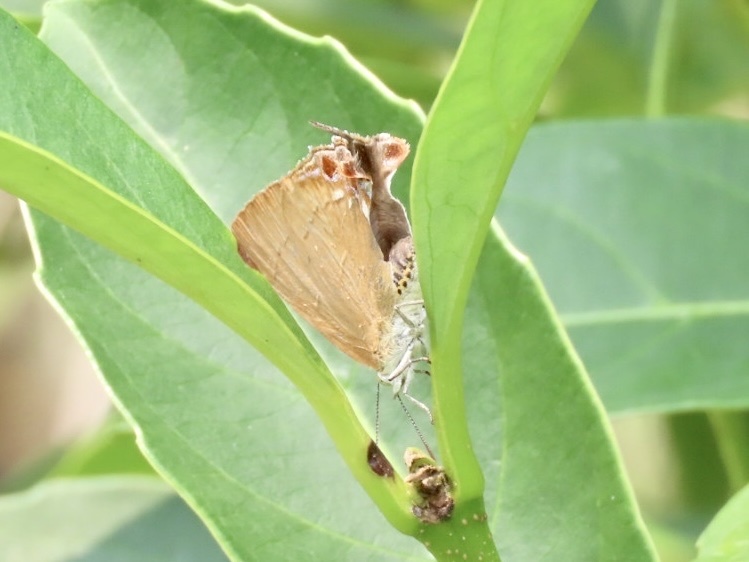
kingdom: Animalia
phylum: Arthropoda
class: Insecta
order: Lepidoptera
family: Lycaenidae
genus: Remelana
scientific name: Remelana jangala
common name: Chocolate royal
